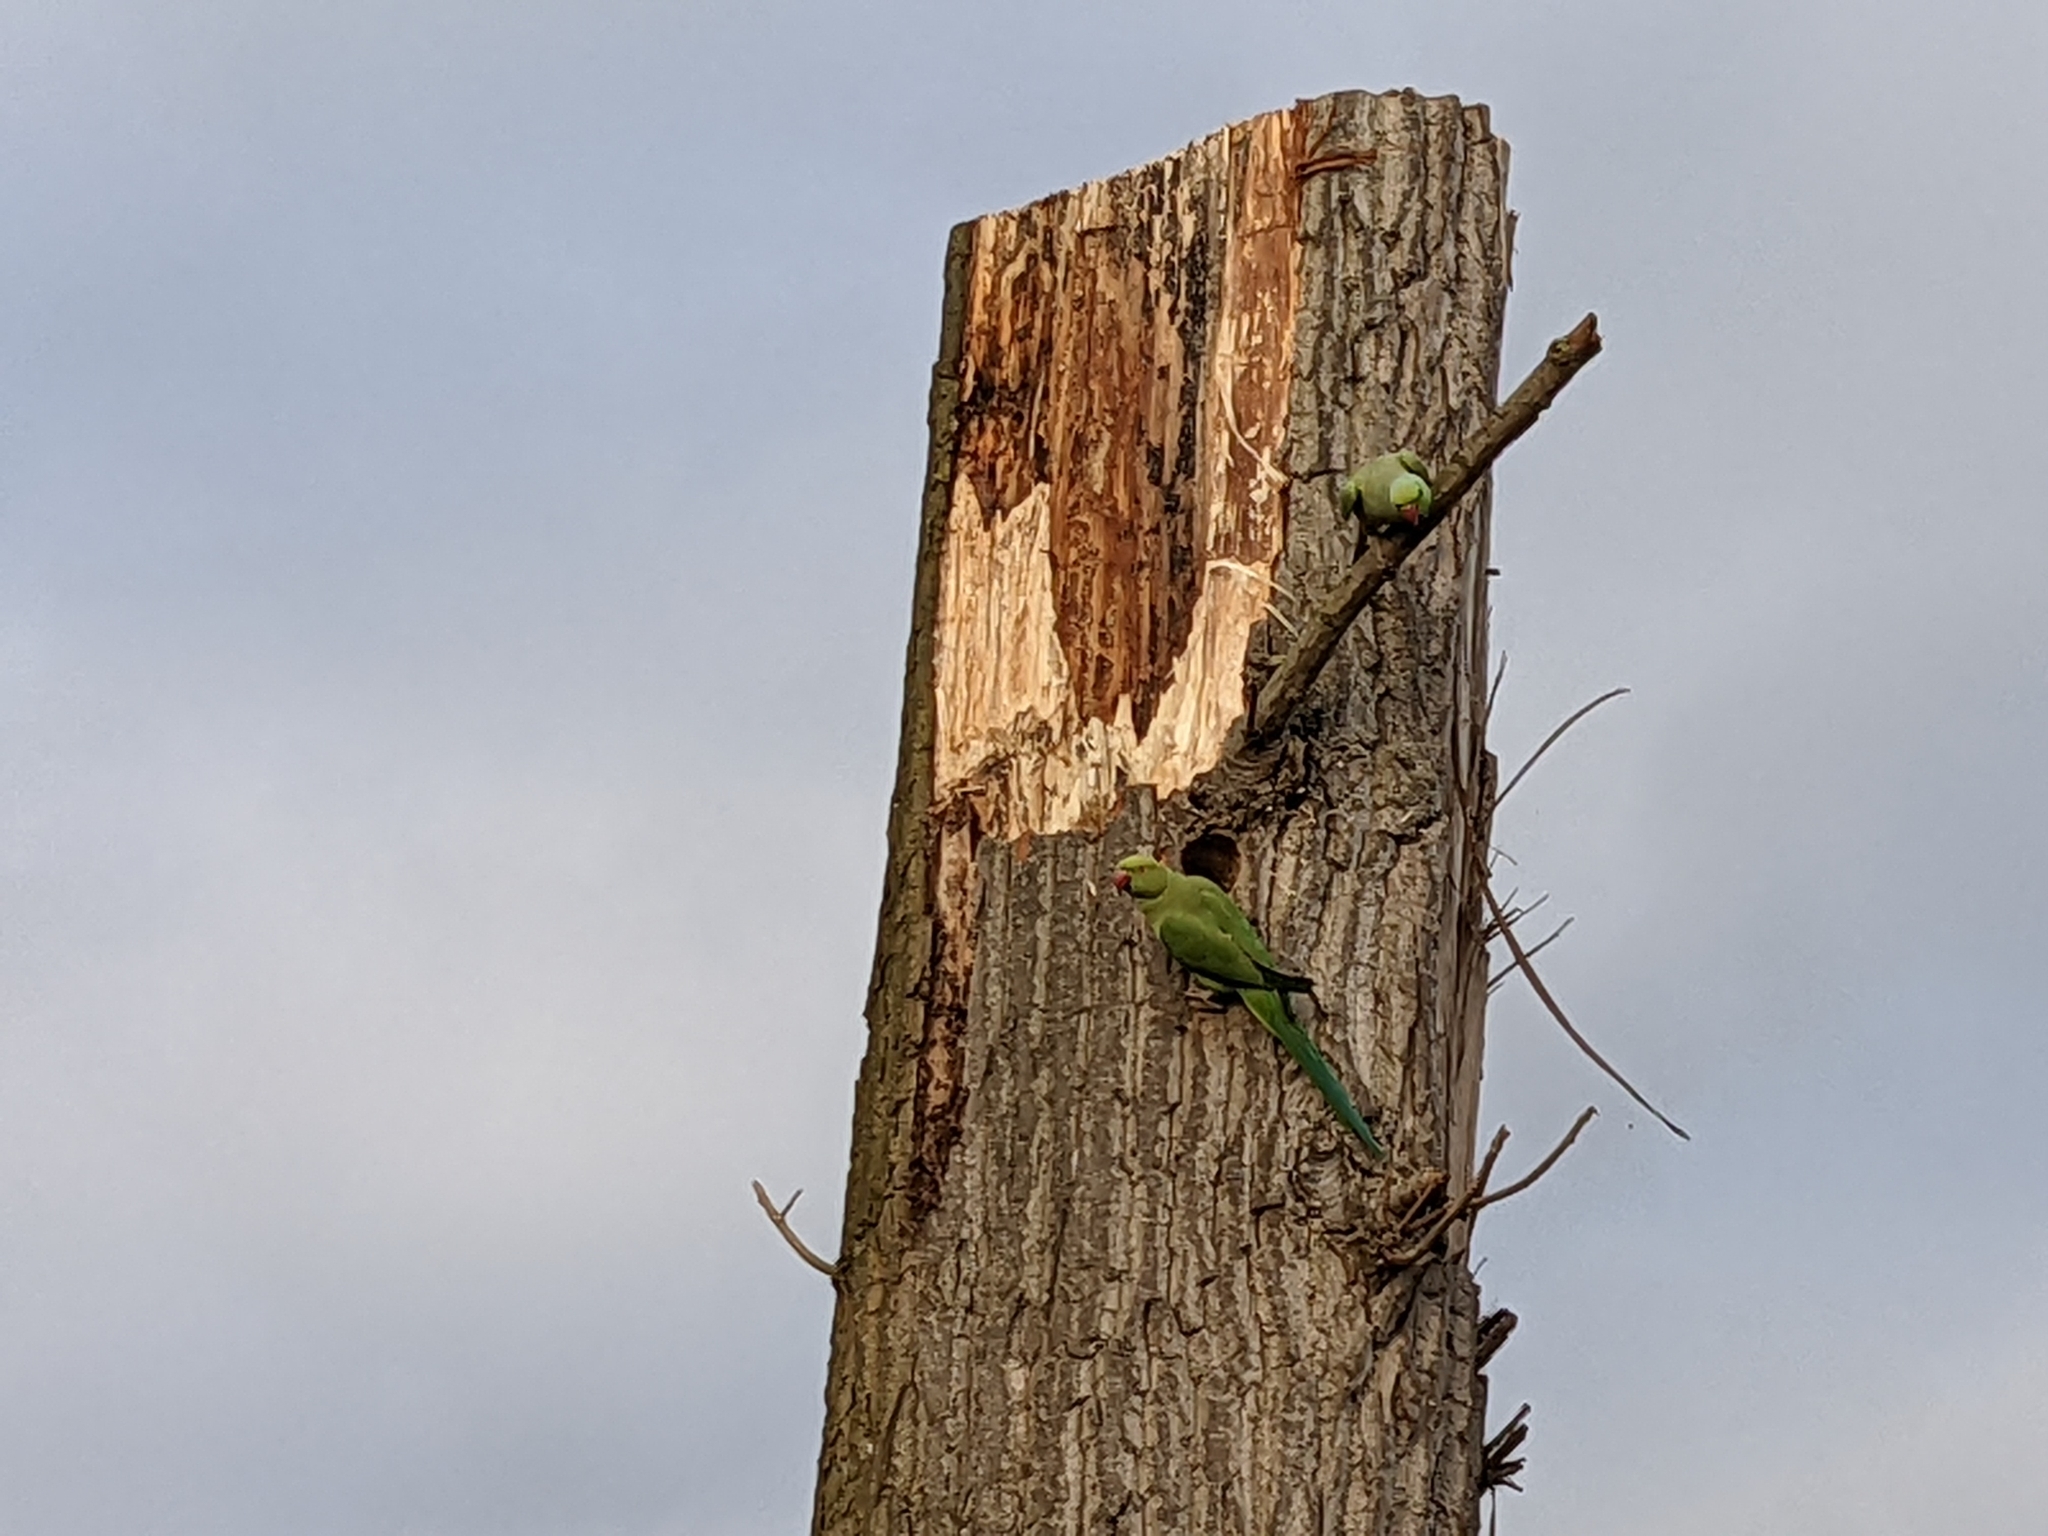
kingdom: Animalia
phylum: Chordata
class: Aves
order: Psittaciformes
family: Psittacidae
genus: Psittacula
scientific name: Psittacula krameri
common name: Rose-ringed parakeet
